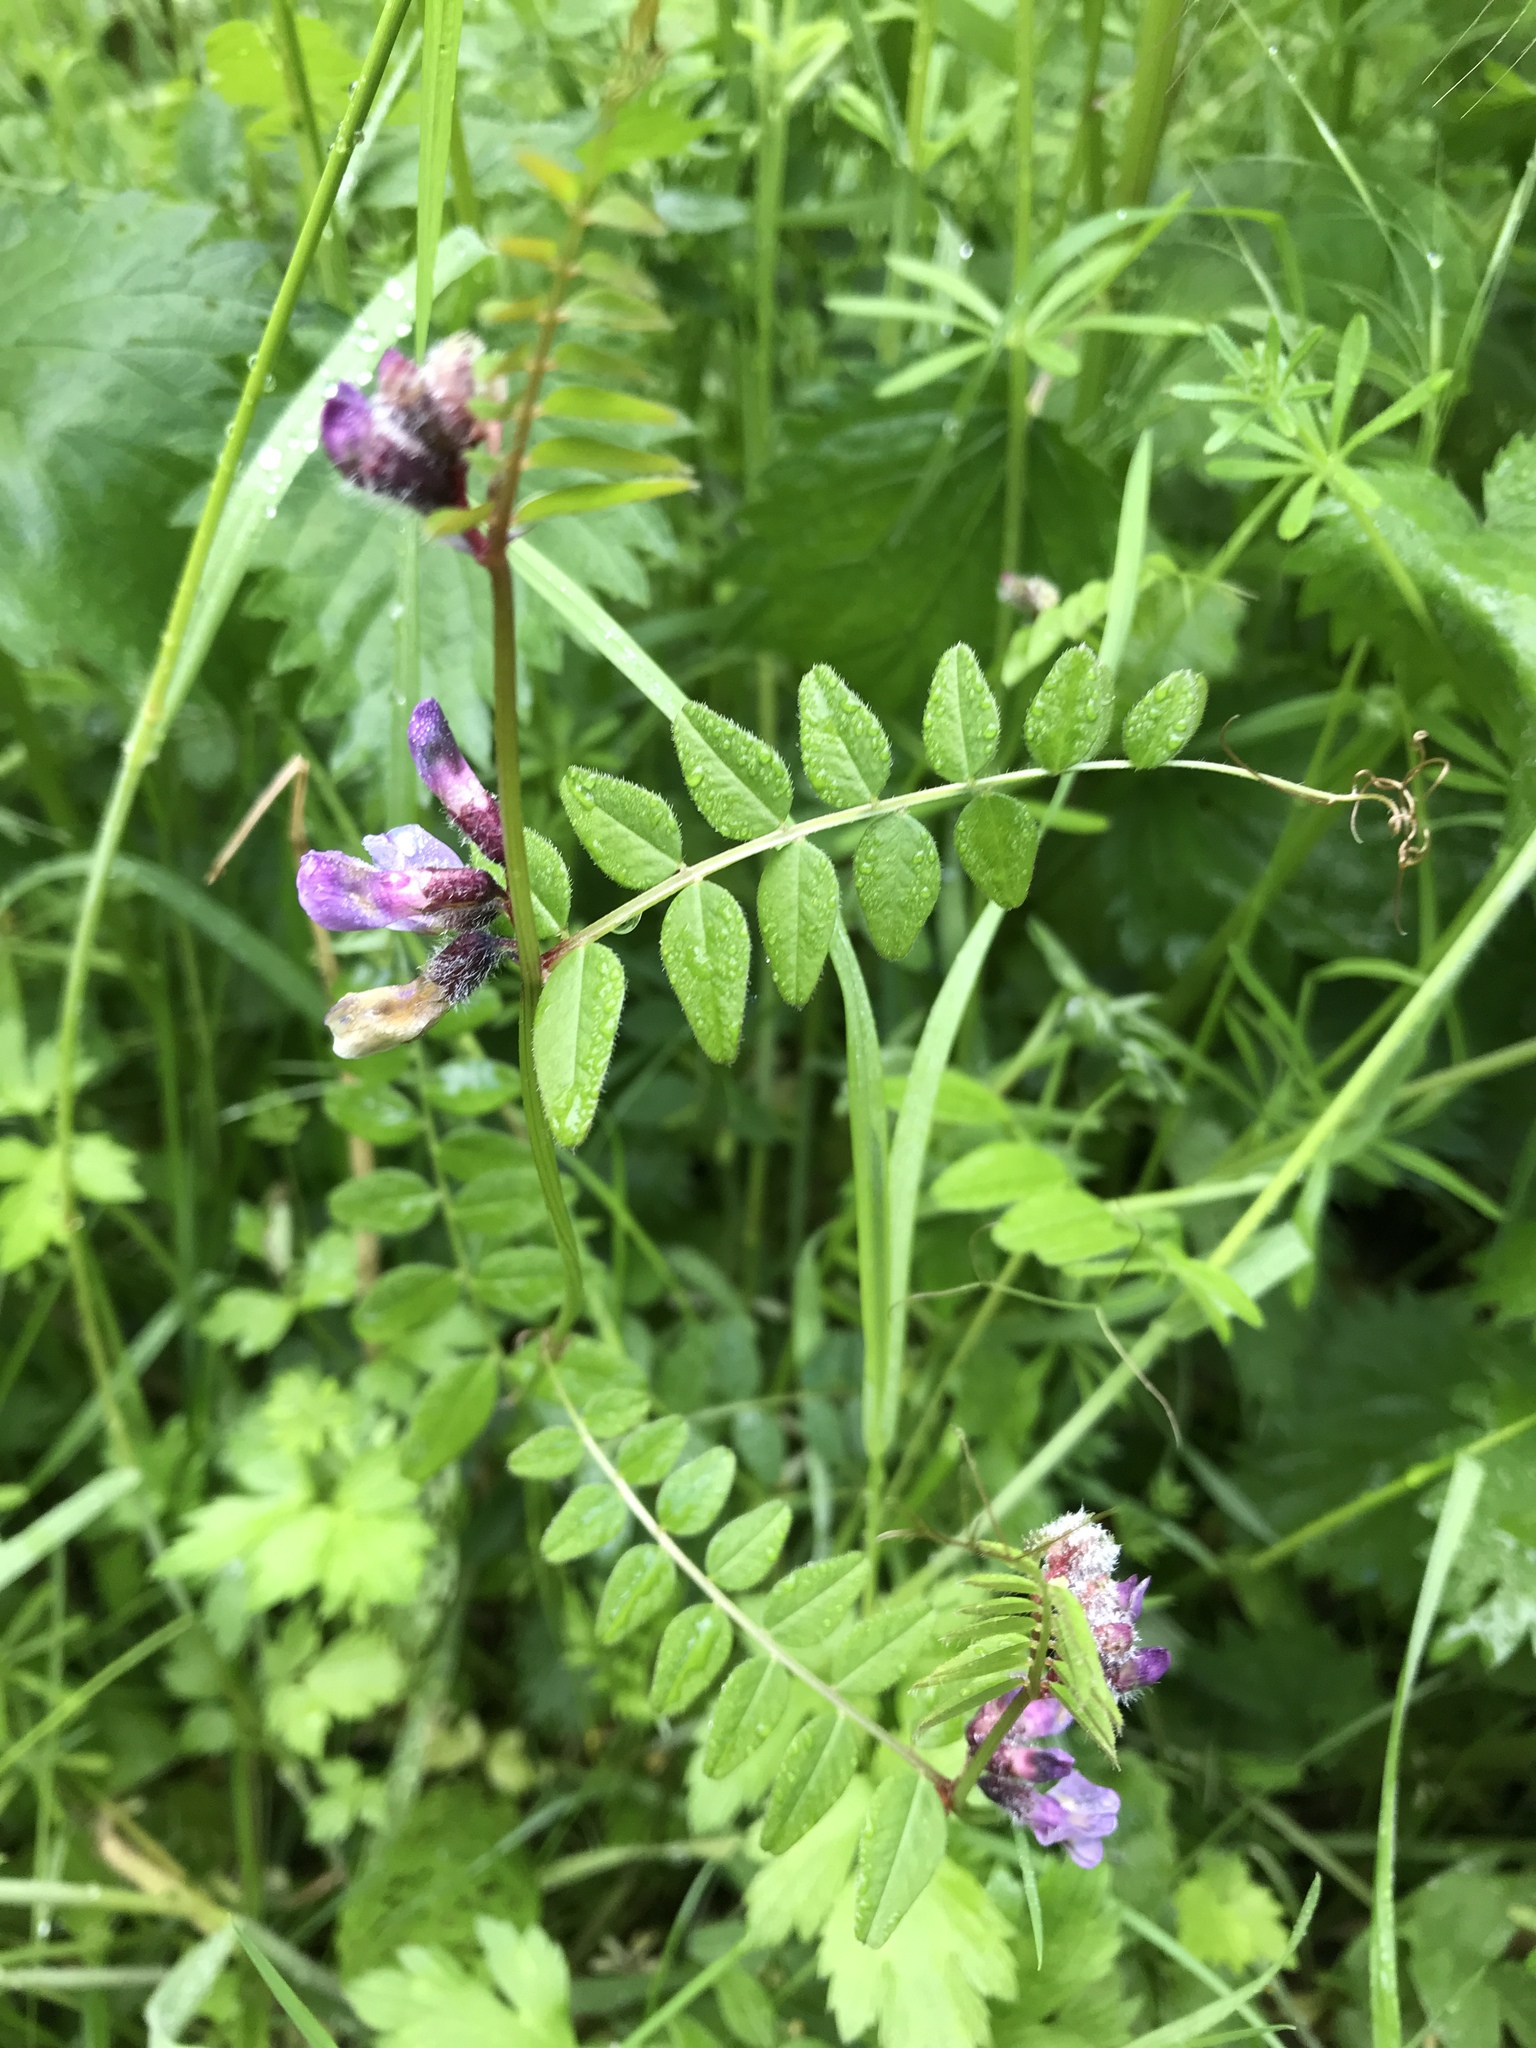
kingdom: Plantae
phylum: Tracheophyta
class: Magnoliopsida
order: Fabales
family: Fabaceae
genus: Vicia
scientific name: Vicia sepium
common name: Bush vetch
